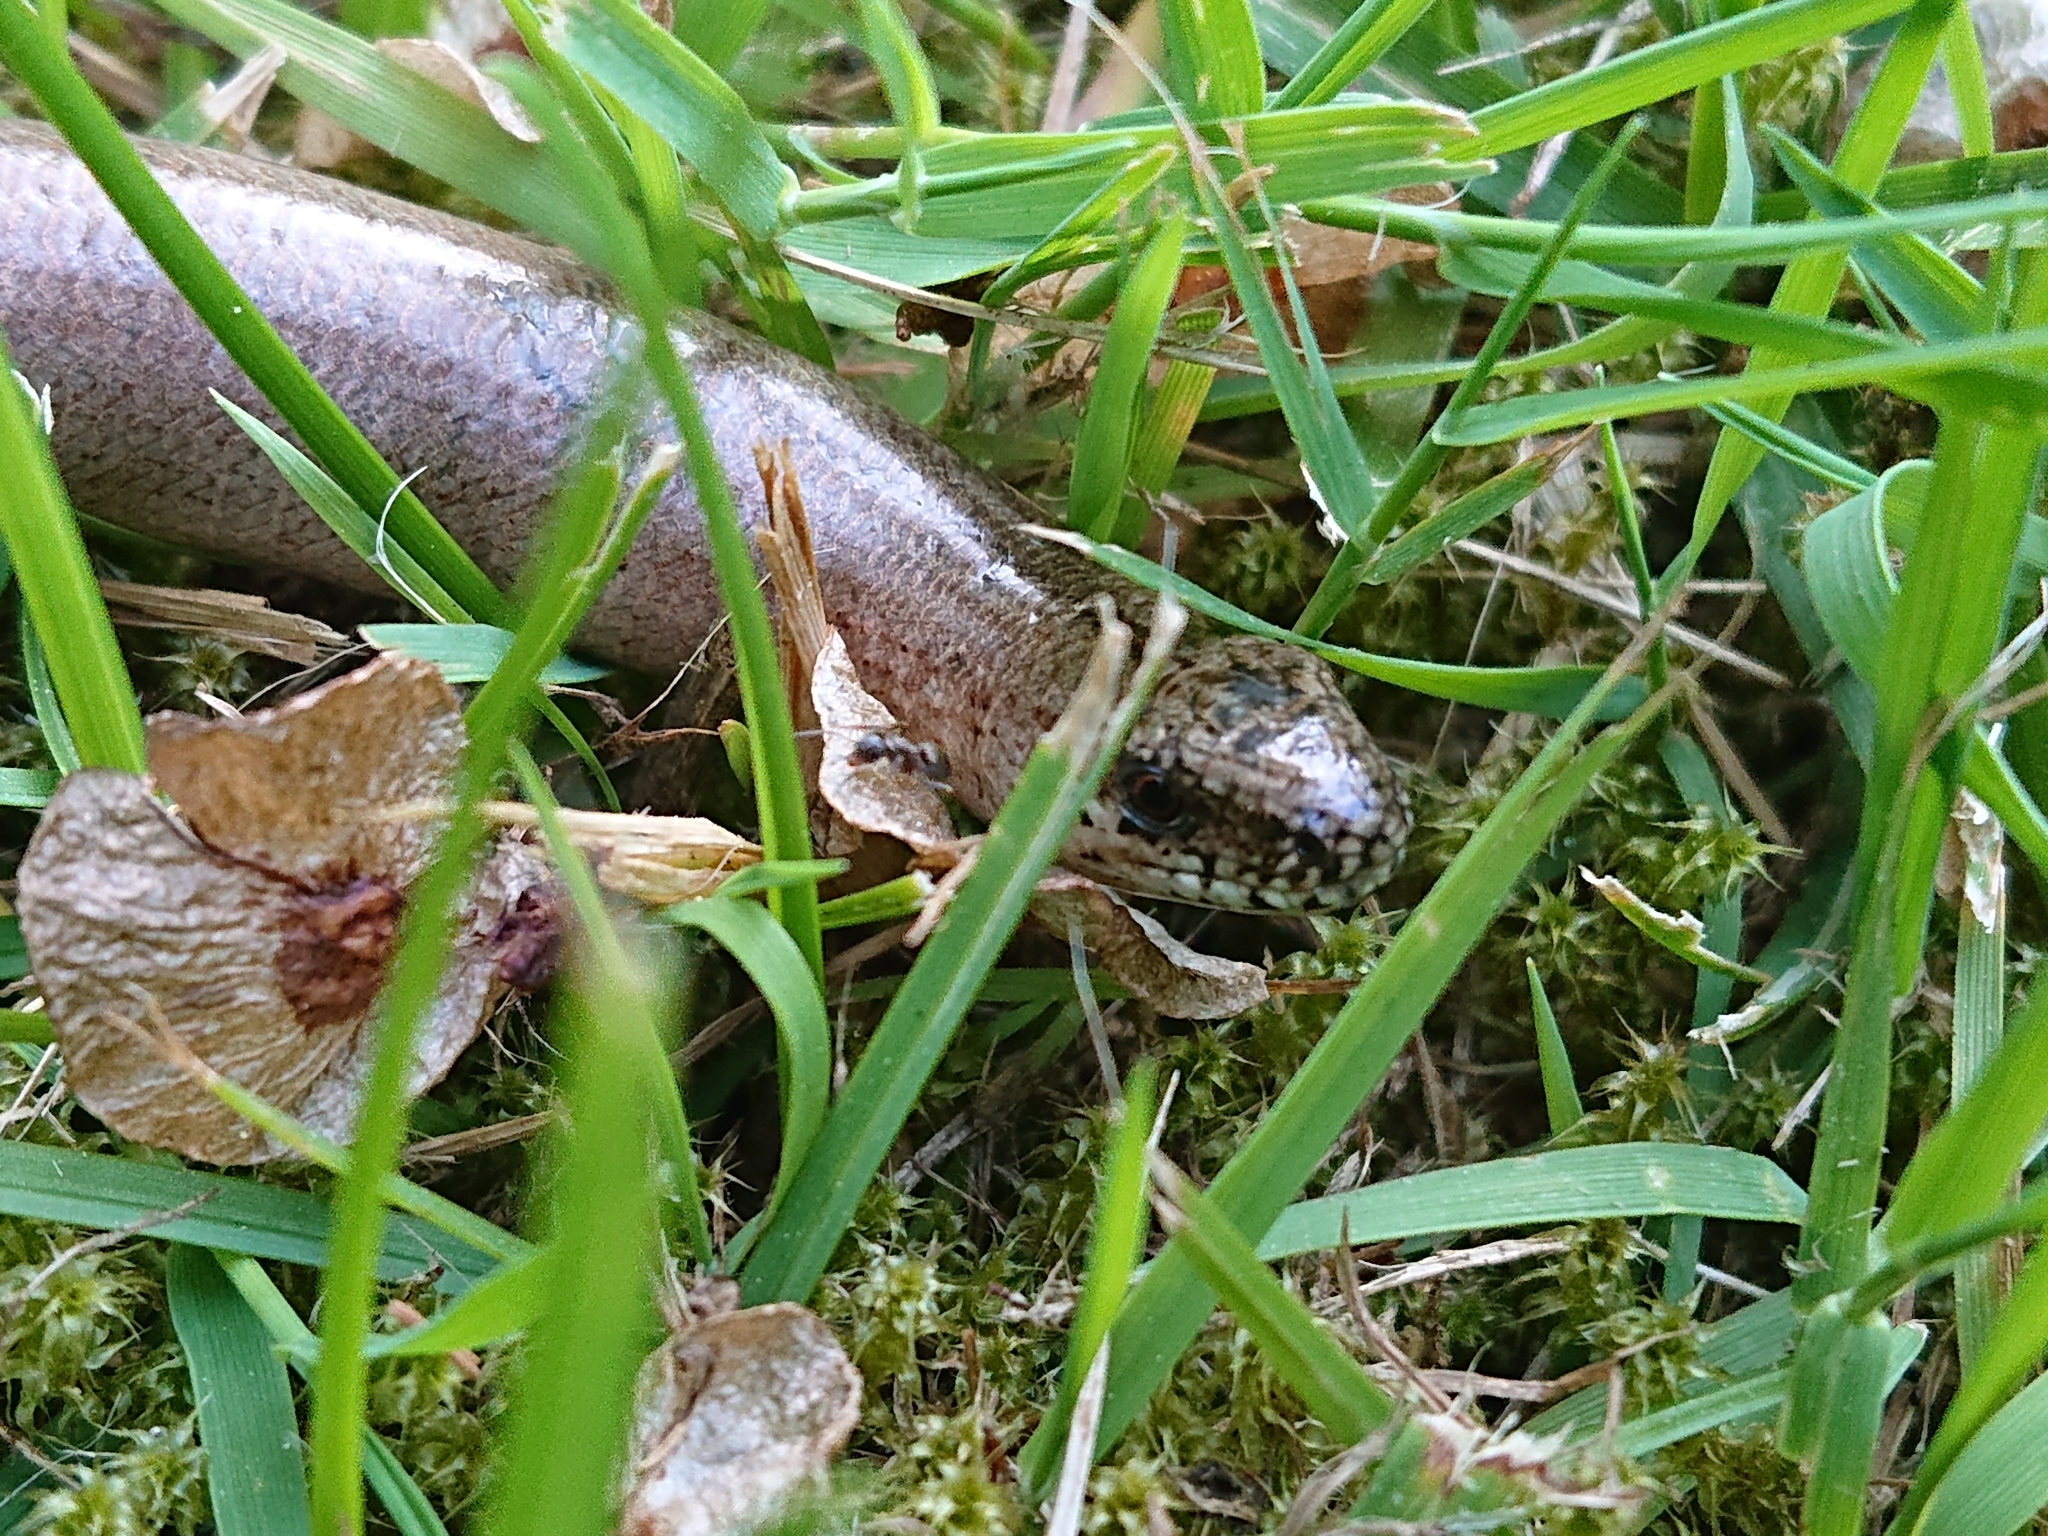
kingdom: Animalia
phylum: Chordata
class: Squamata
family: Anguidae
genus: Anguis
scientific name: Anguis fragilis
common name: Slow worm
